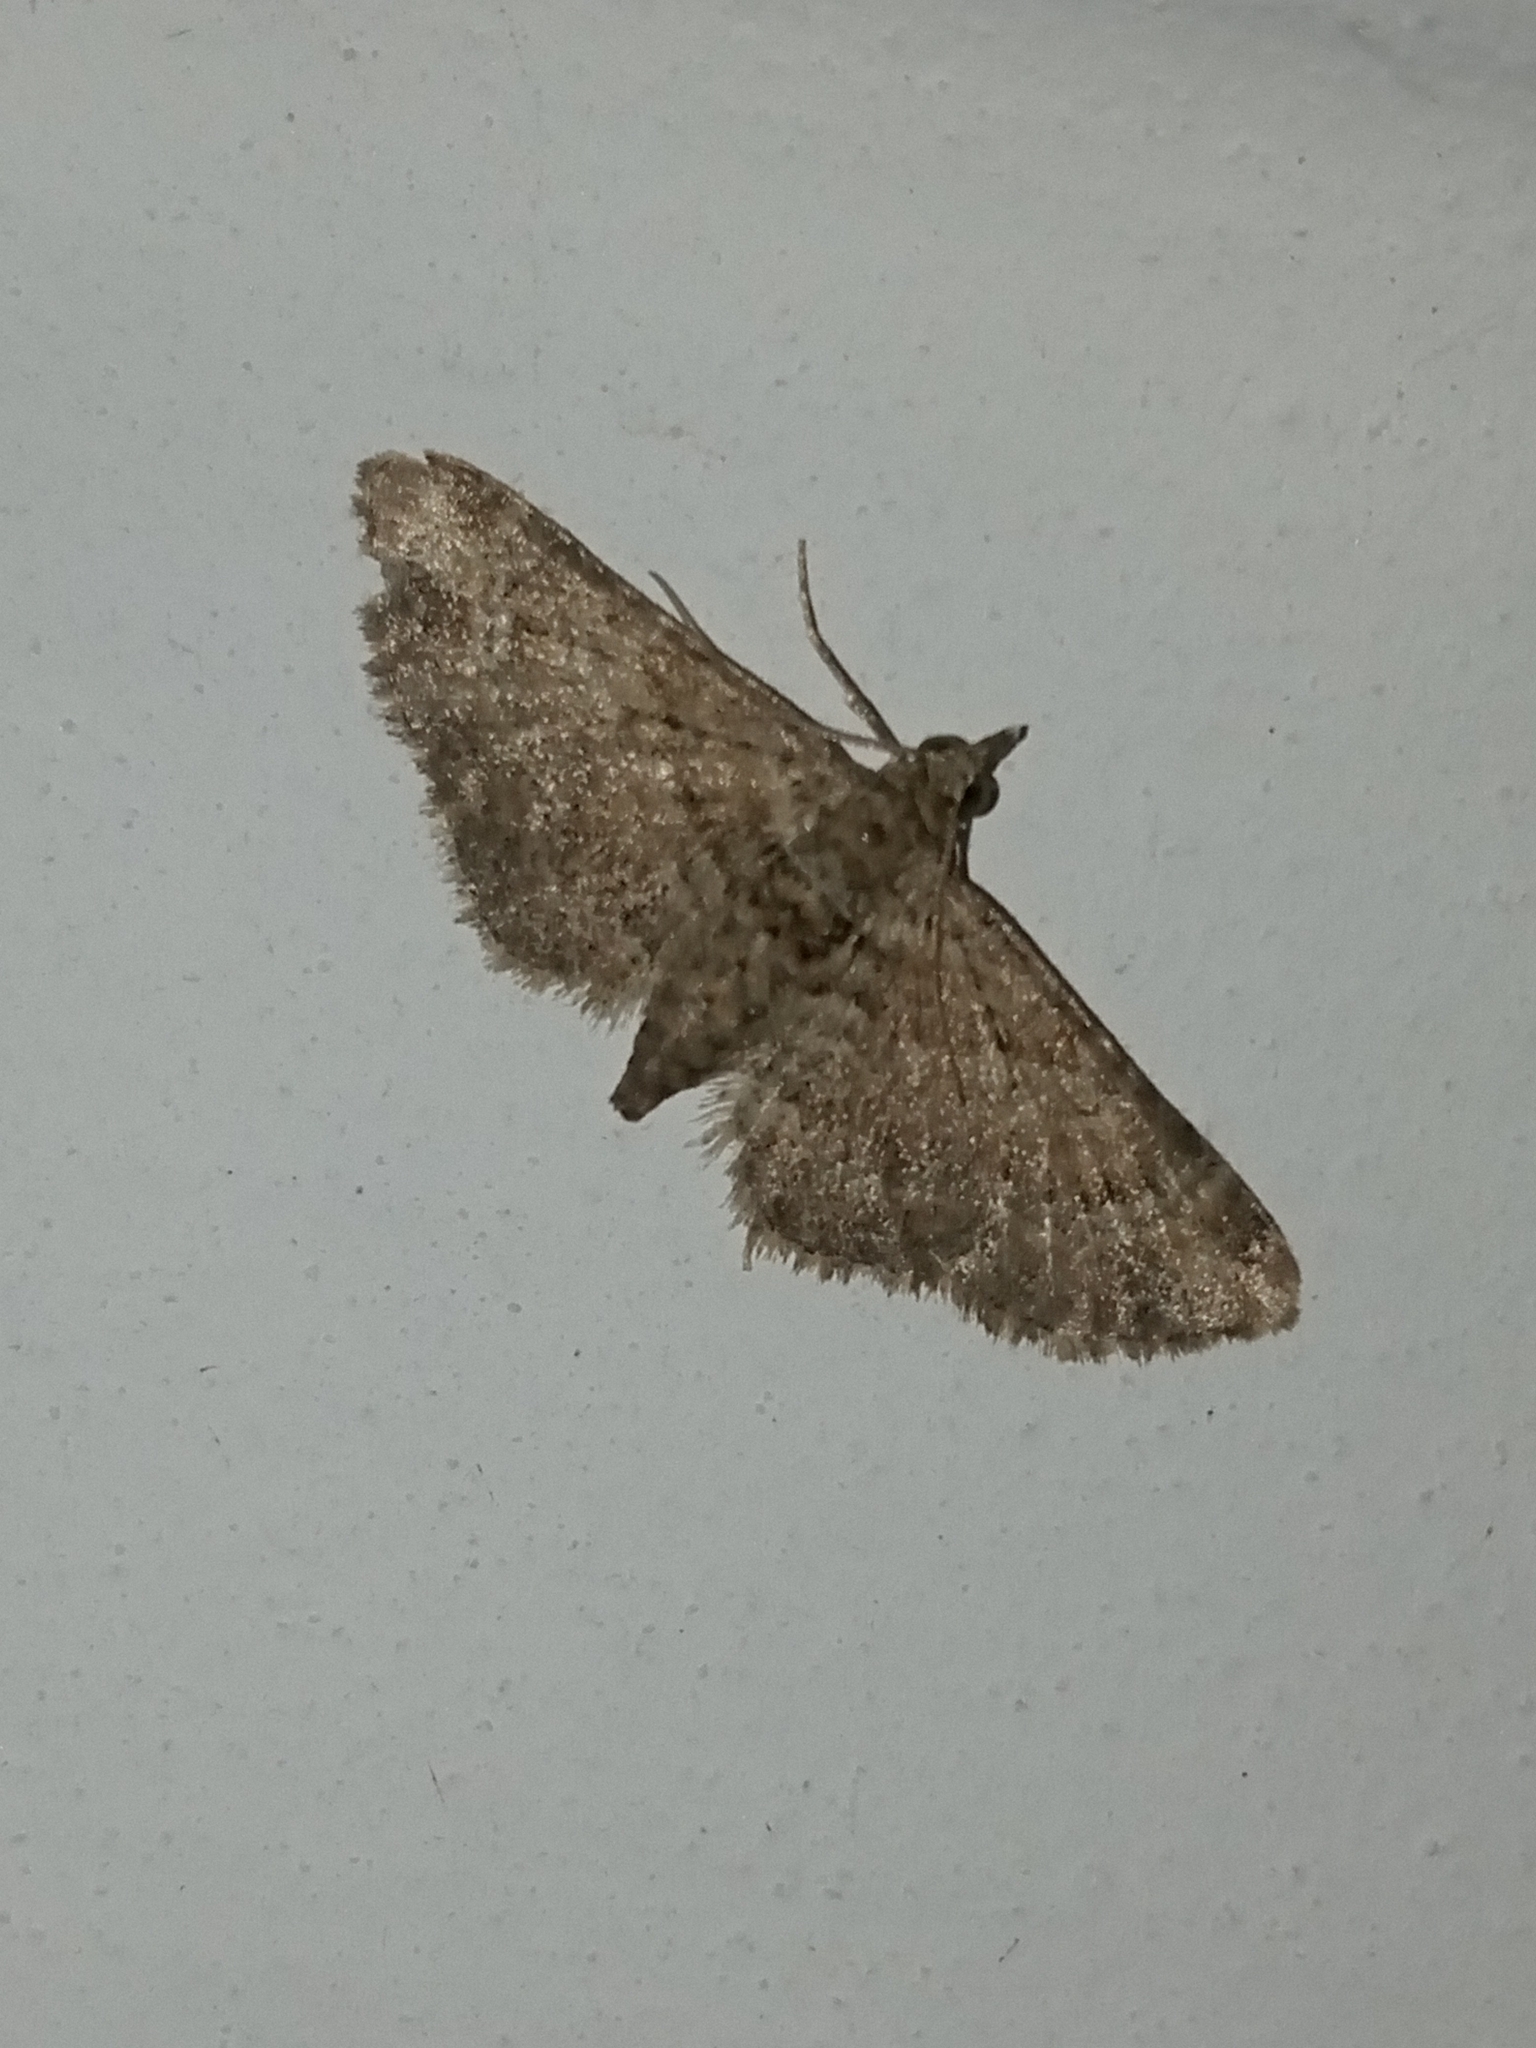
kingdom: Animalia
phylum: Arthropoda
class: Insecta
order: Lepidoptera
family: Geometridae
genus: Gymnoscelis
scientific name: Gymnoscelis rufifasciata
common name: Double-striped pug
